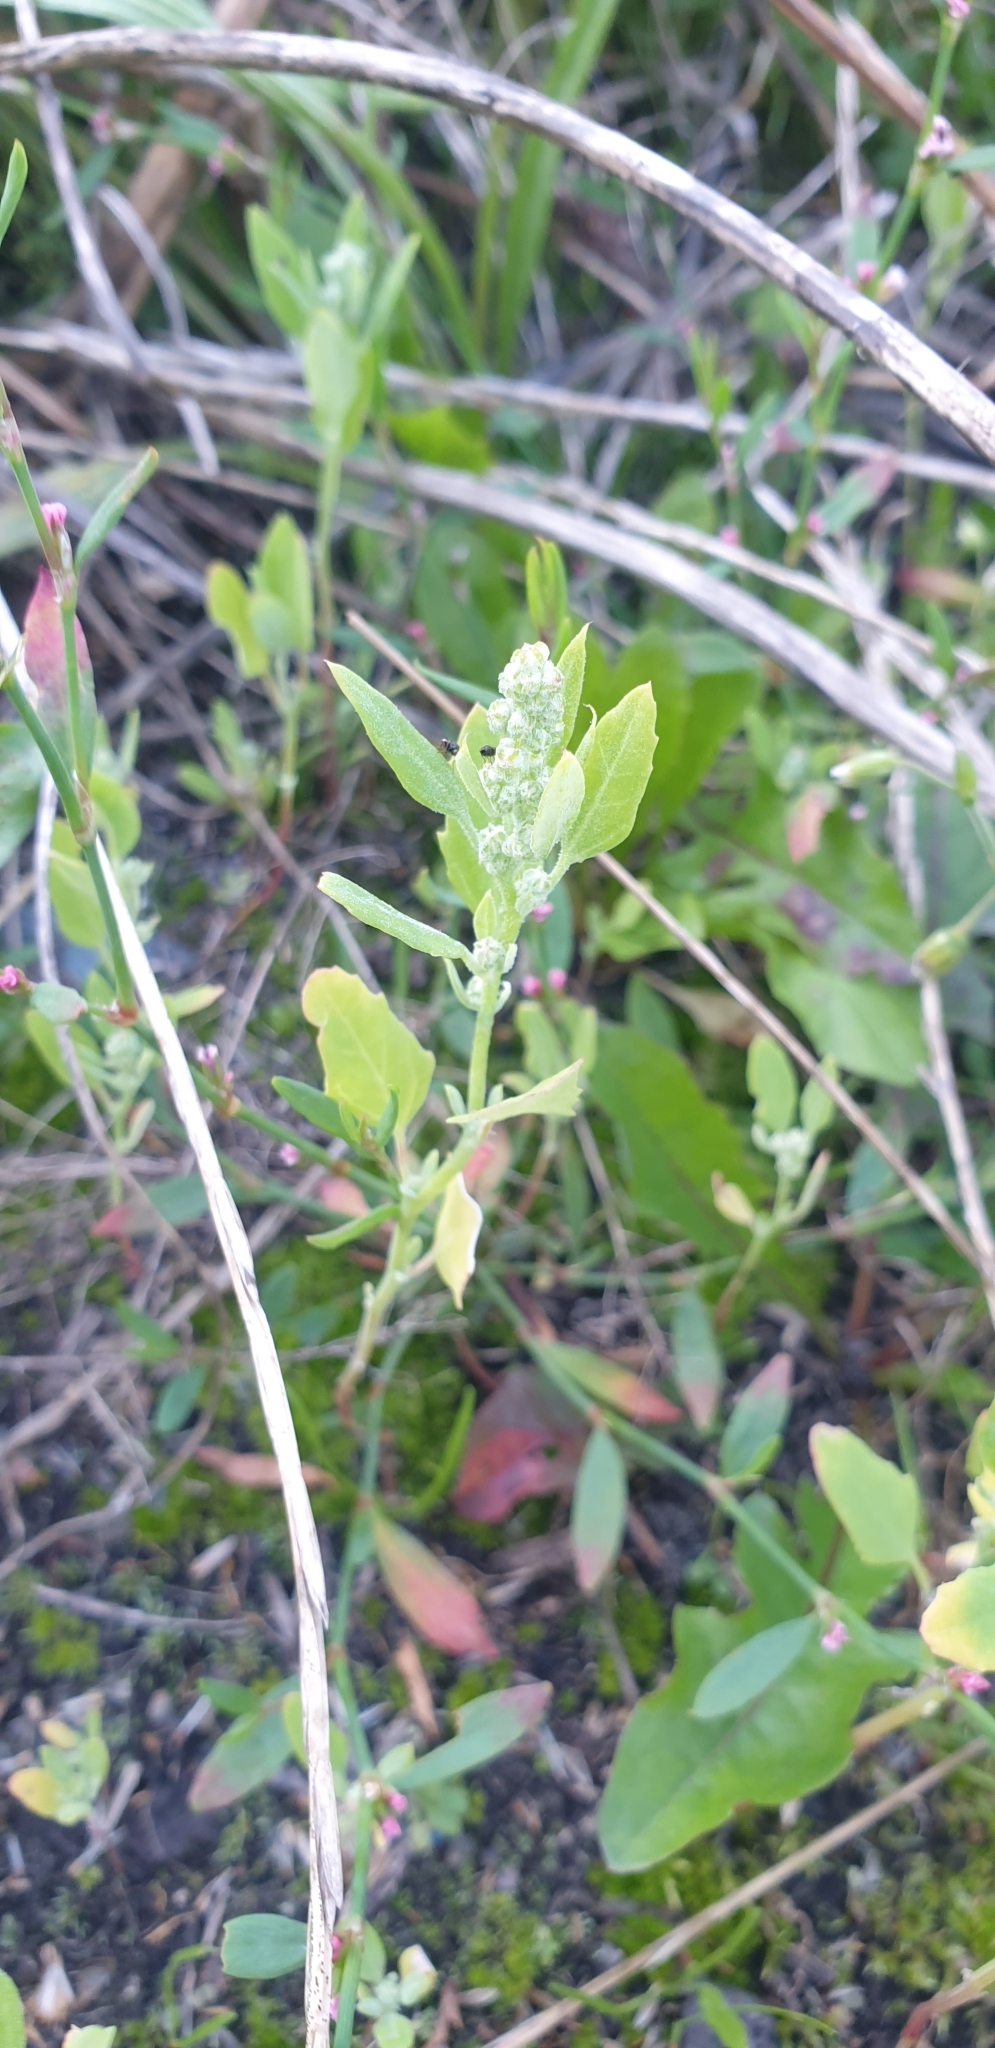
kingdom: Plantae
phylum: Tracheophyta
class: Magnoliopsida
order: Caryophyllales
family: Amaranthaceae
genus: Chenopodium
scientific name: Chenopodium album
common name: Fat-hen
